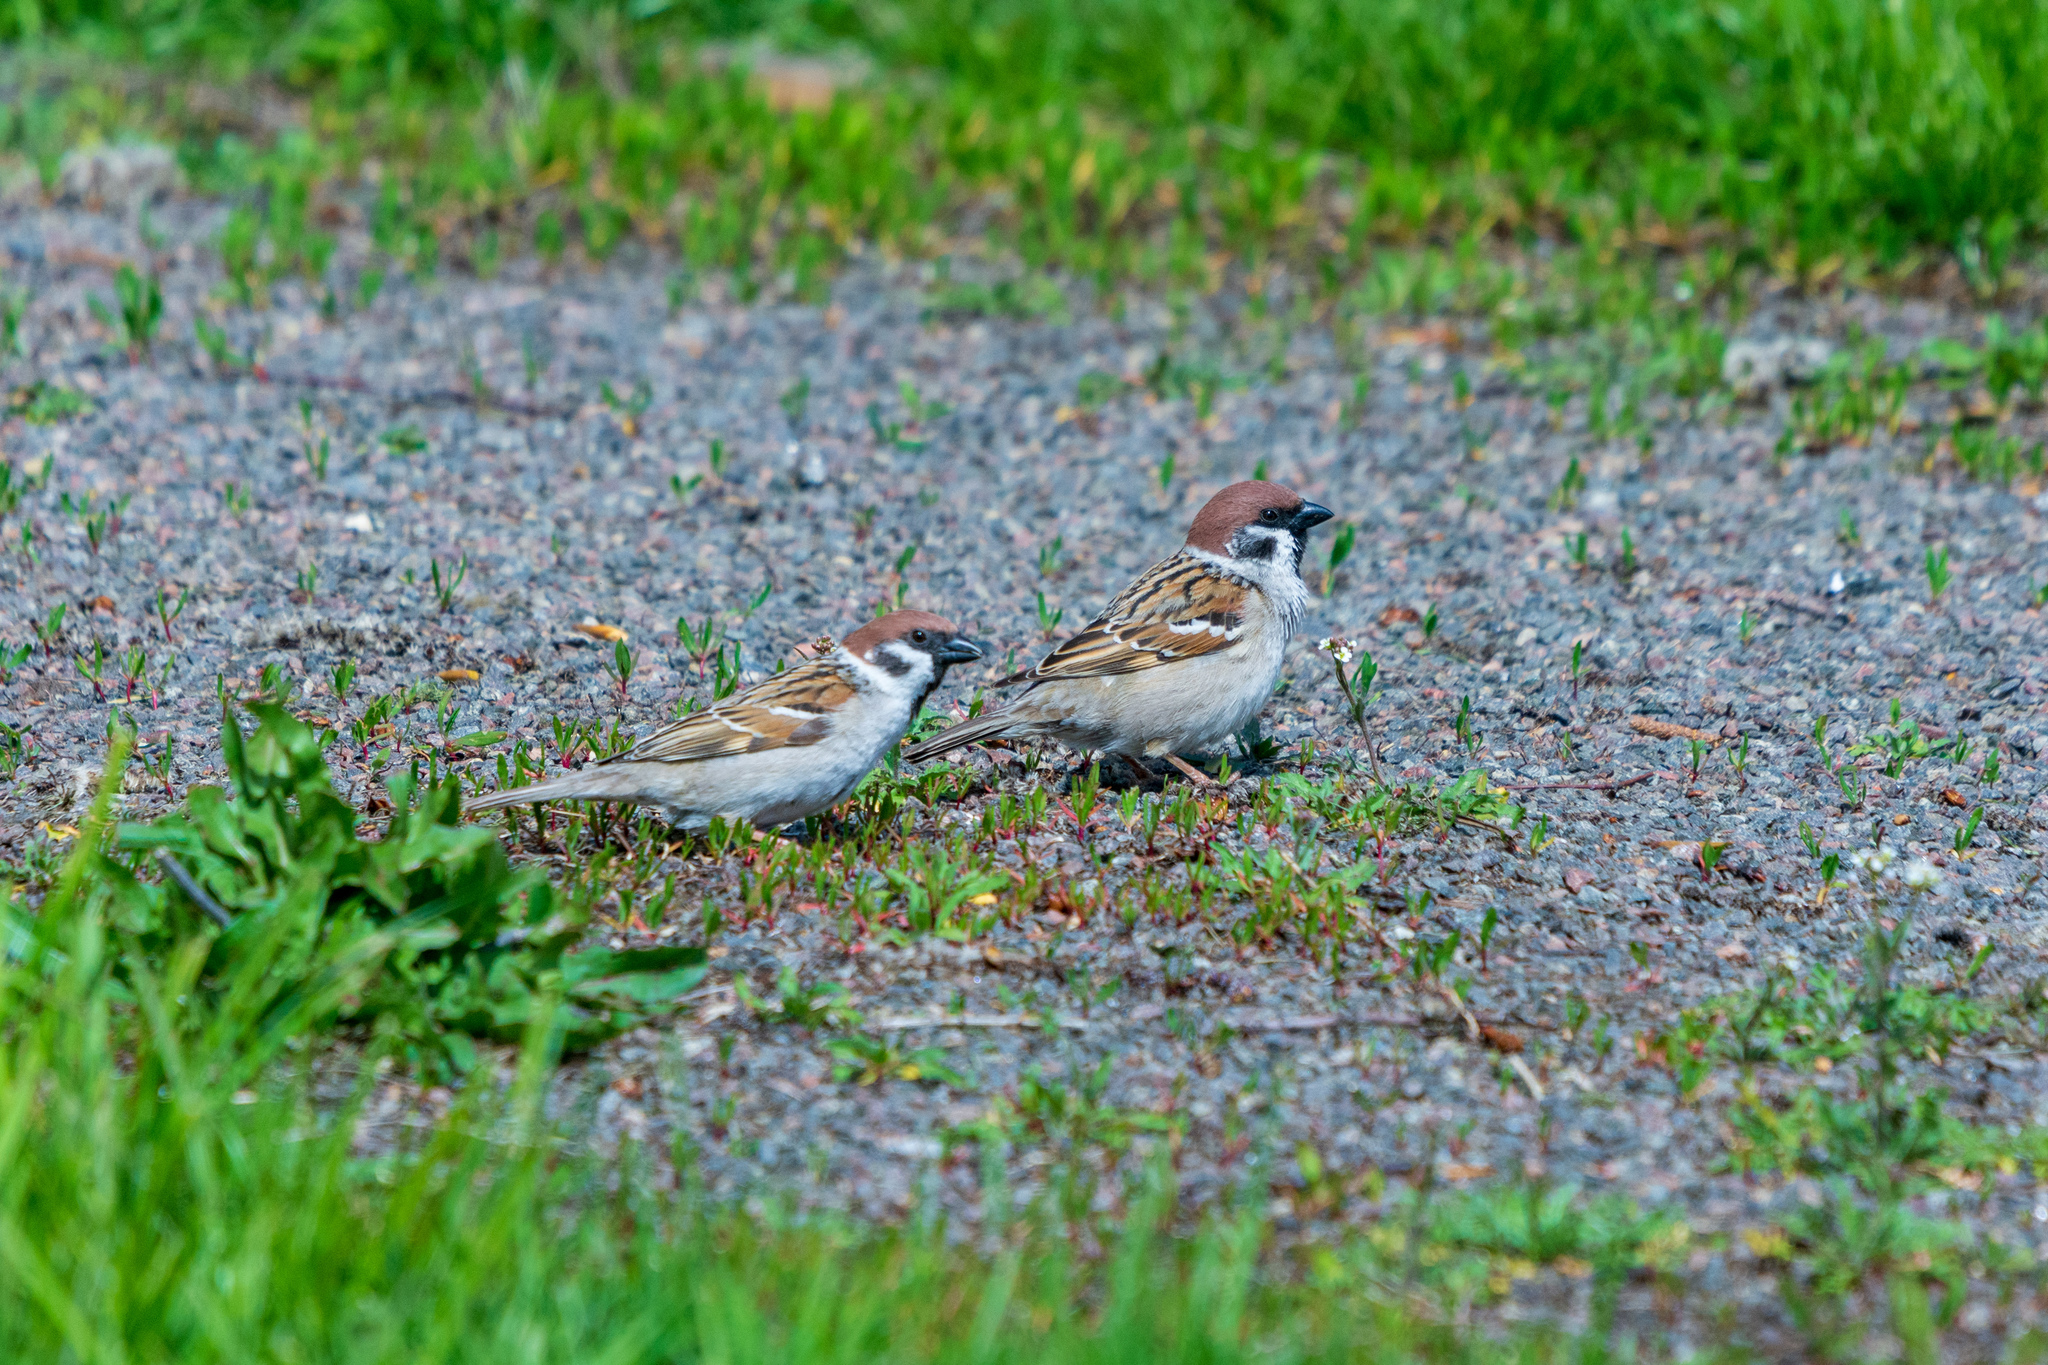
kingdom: Animalia
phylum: Chordata
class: Aves
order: Passeriformes
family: Passeridae
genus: Passer
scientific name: Passer montanus
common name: Eurasian tree sparrow
